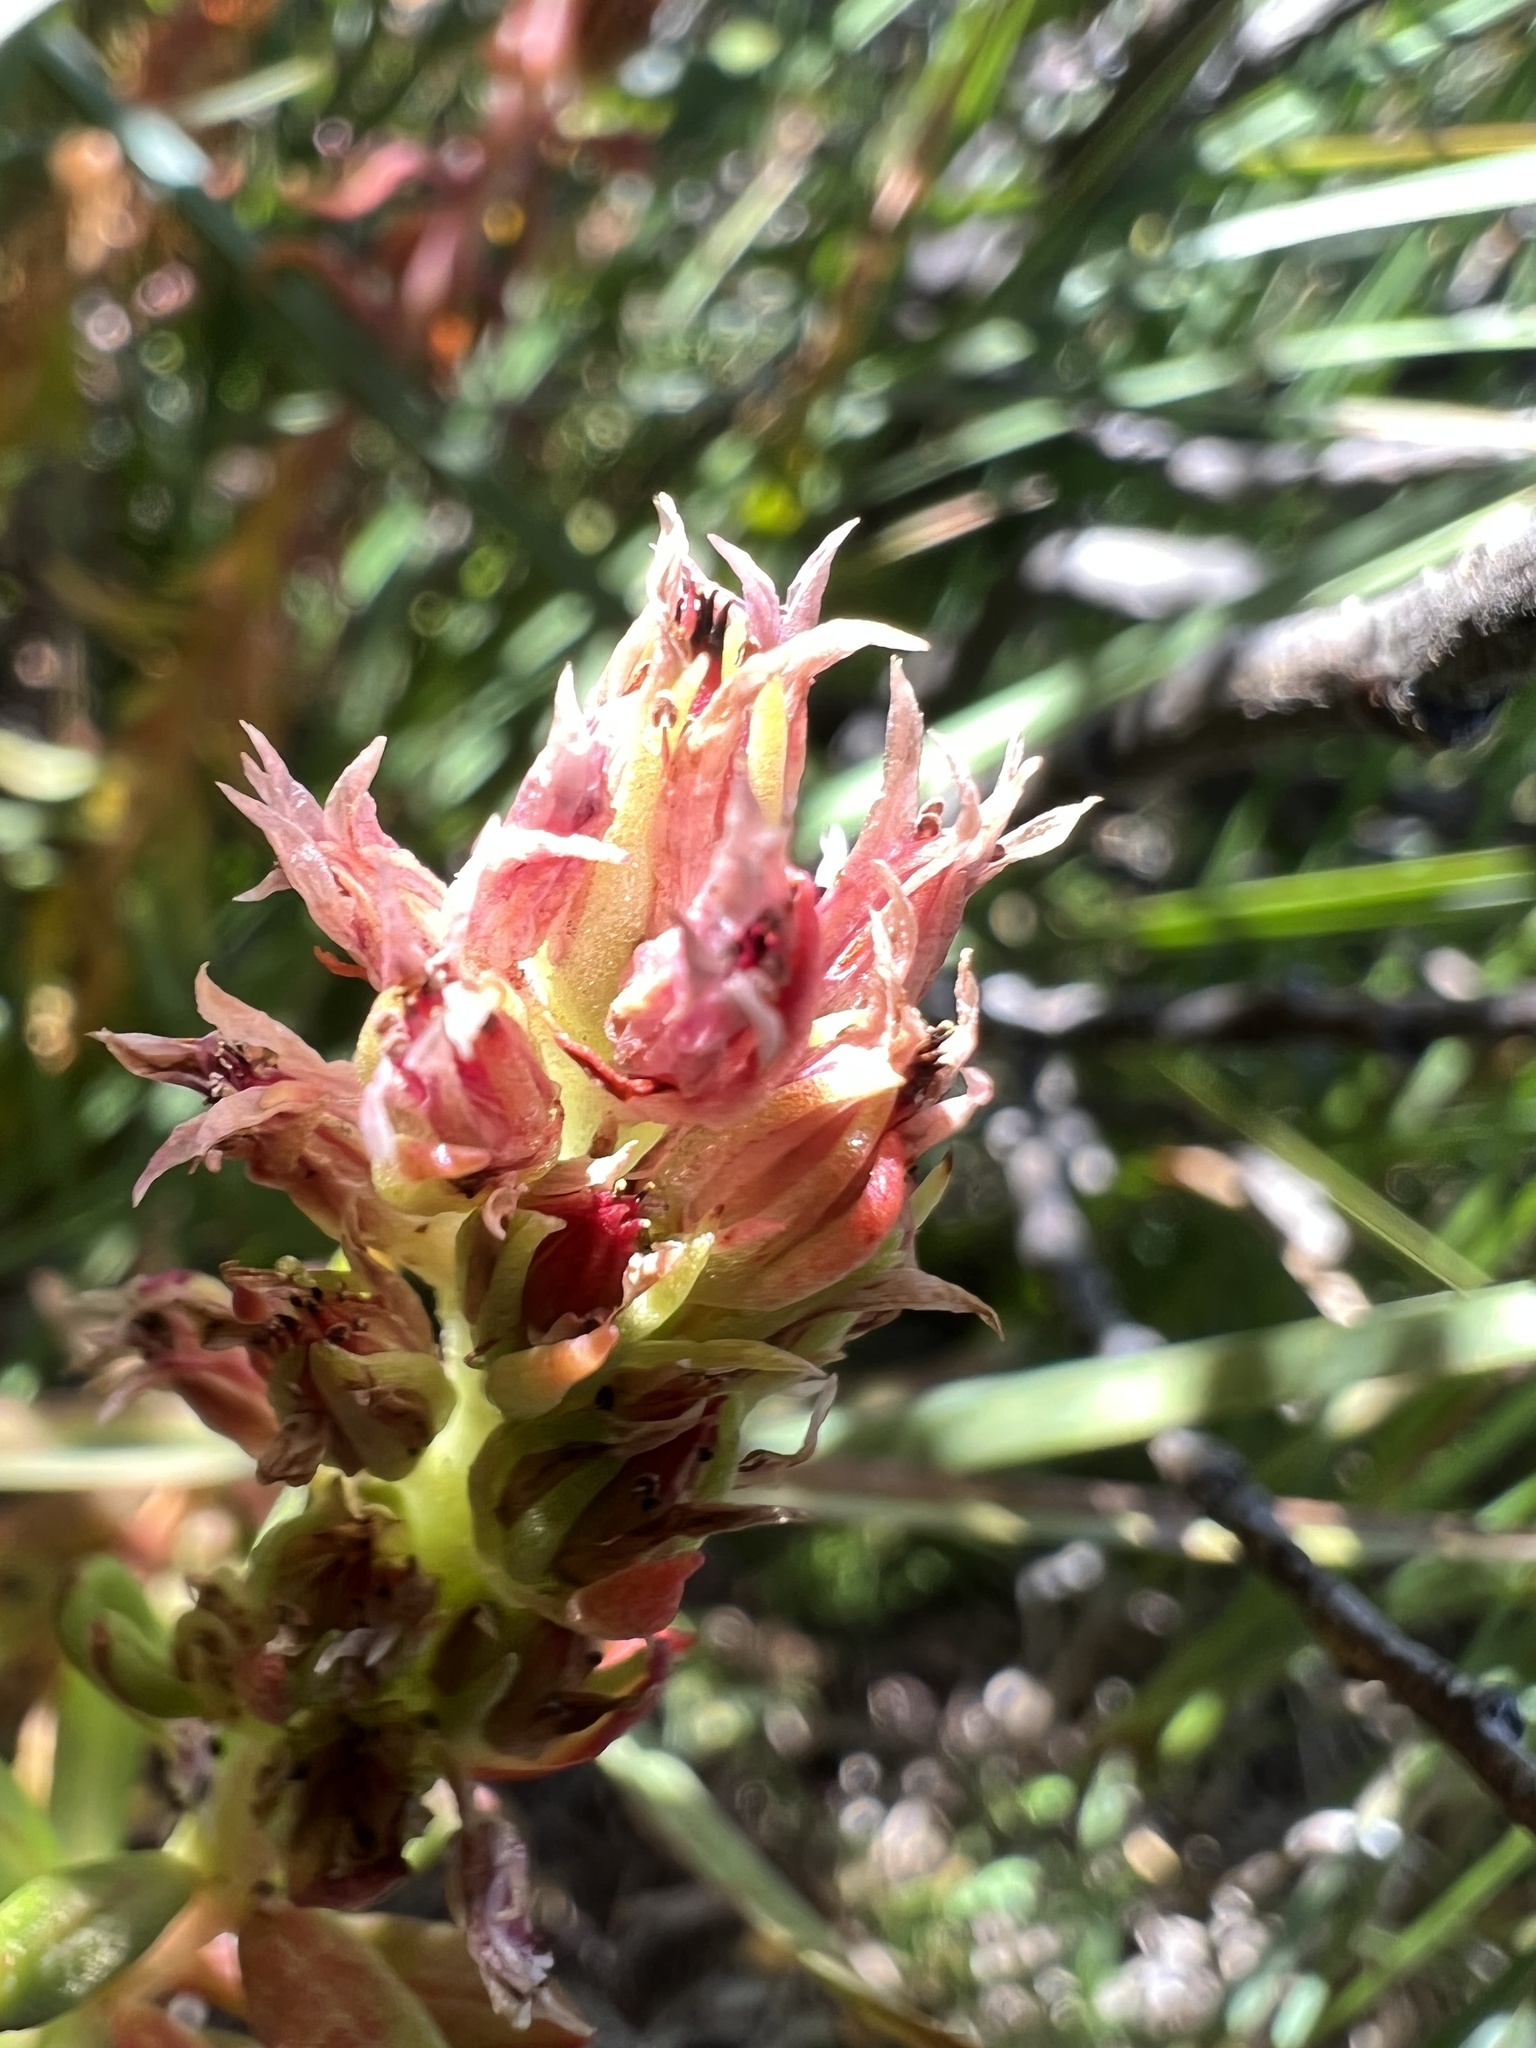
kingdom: Plantae
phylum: Tracheophyta
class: Magnoliopsida
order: Saxifragales
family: Crassulaceae
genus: Rhodiola
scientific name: Rhodiola rhodantha
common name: Red orpine
